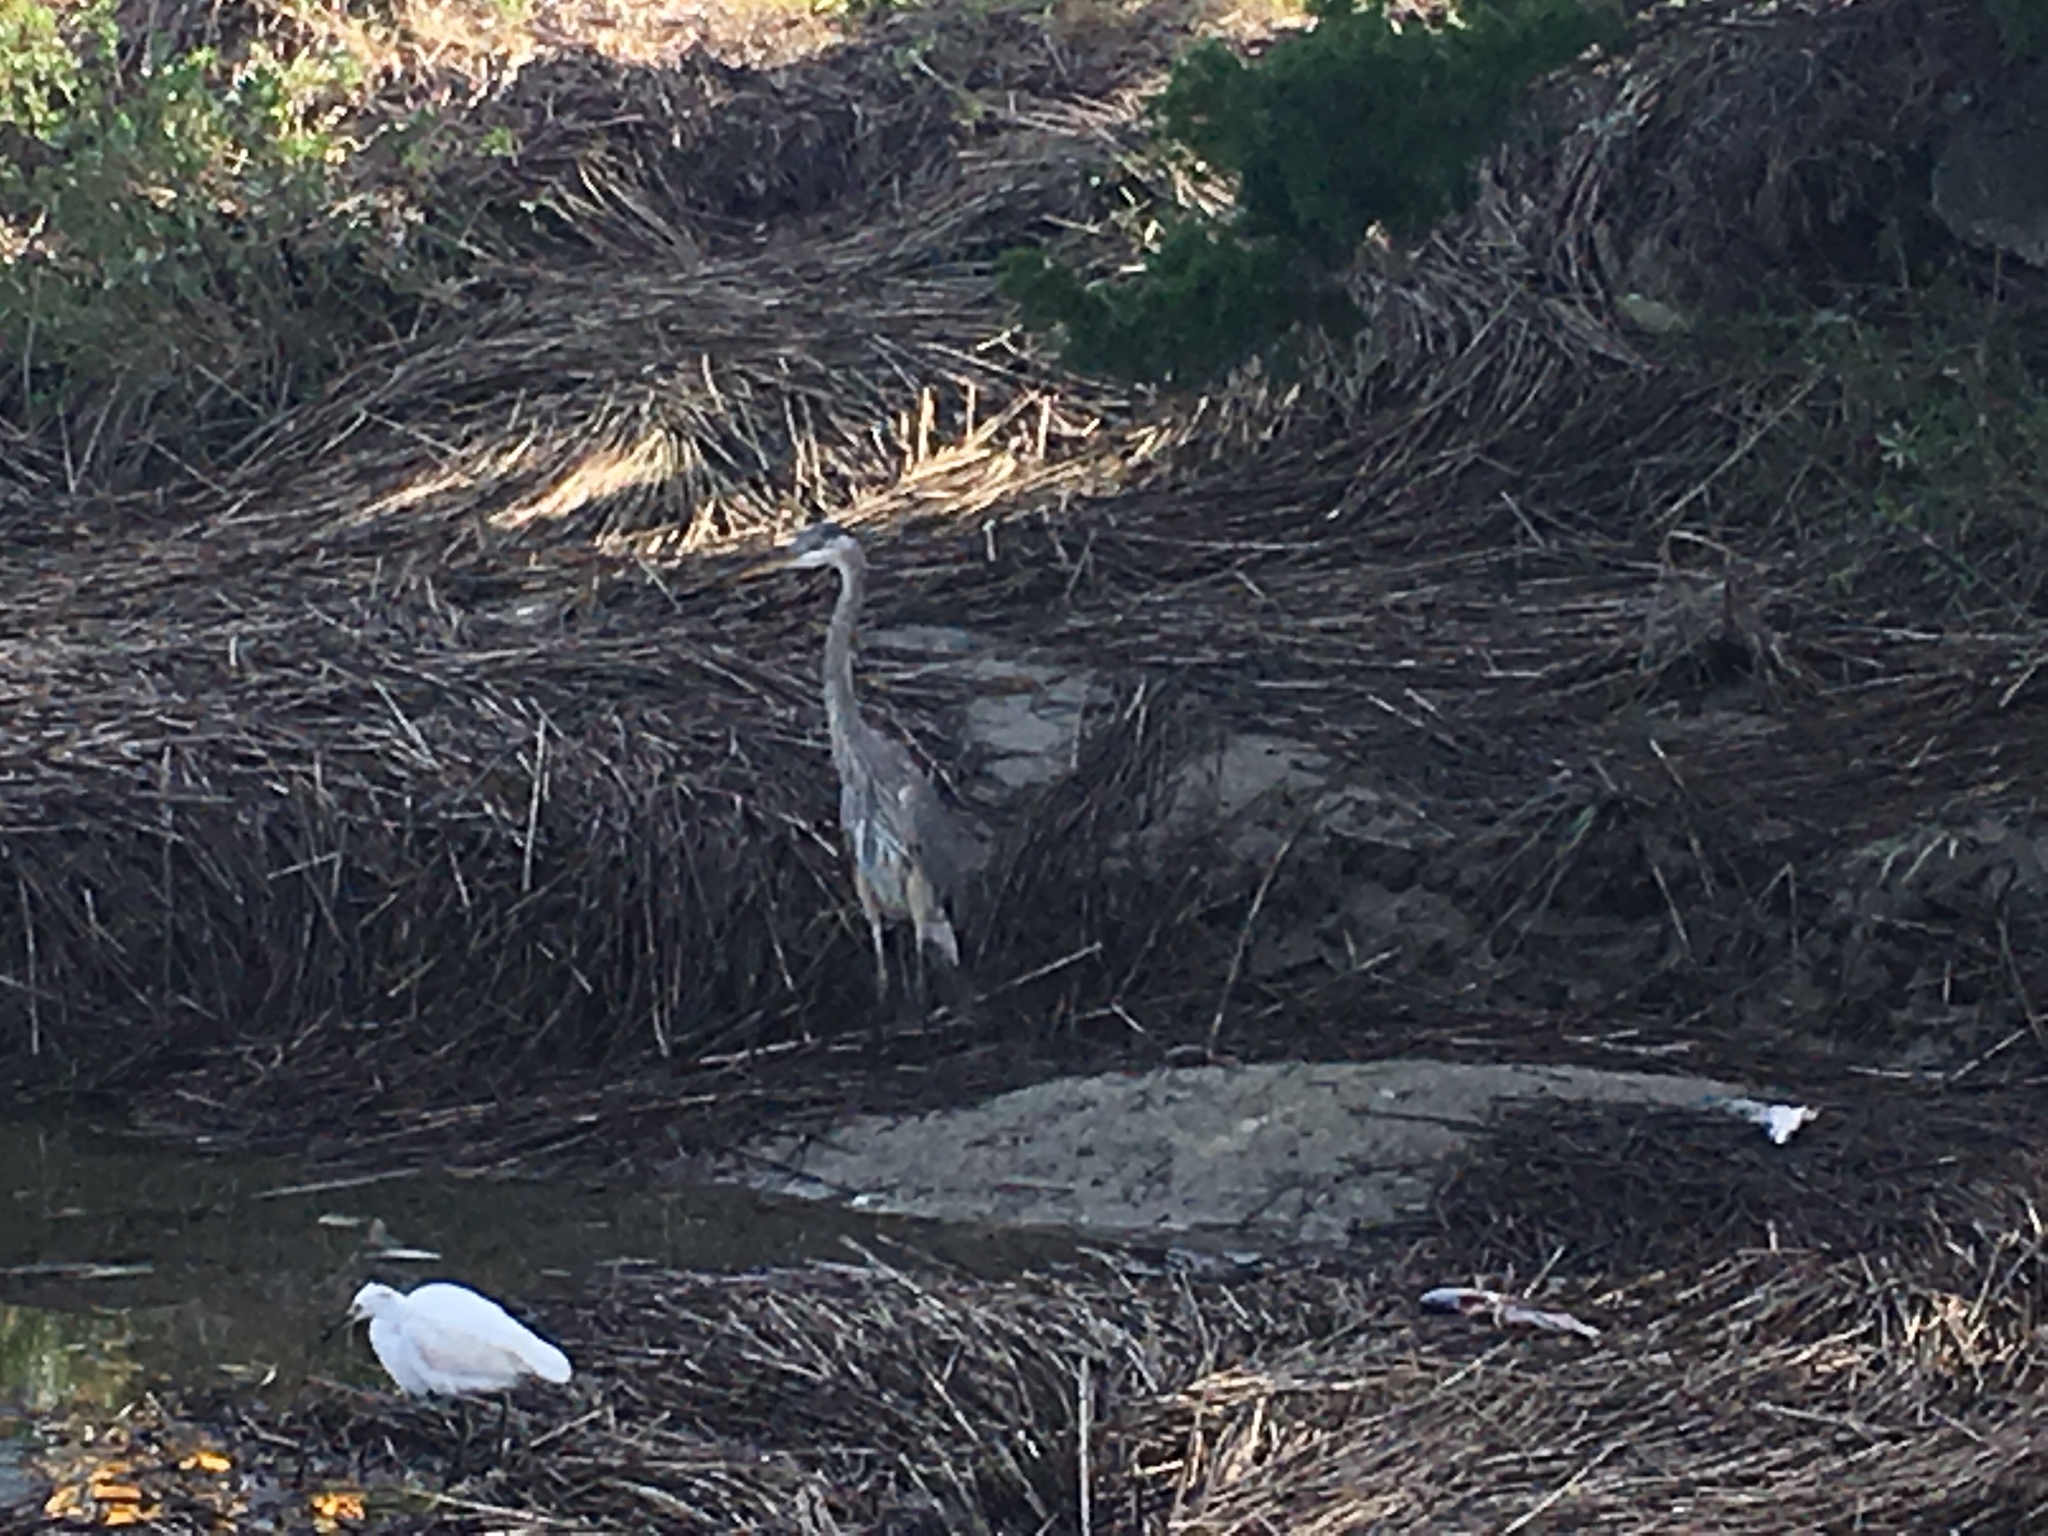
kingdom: Animalia
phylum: Chordata
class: Aves
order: Pelecaniformes
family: Ardeidae
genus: Ardea
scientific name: Ardea herodias
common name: Great blue heron
